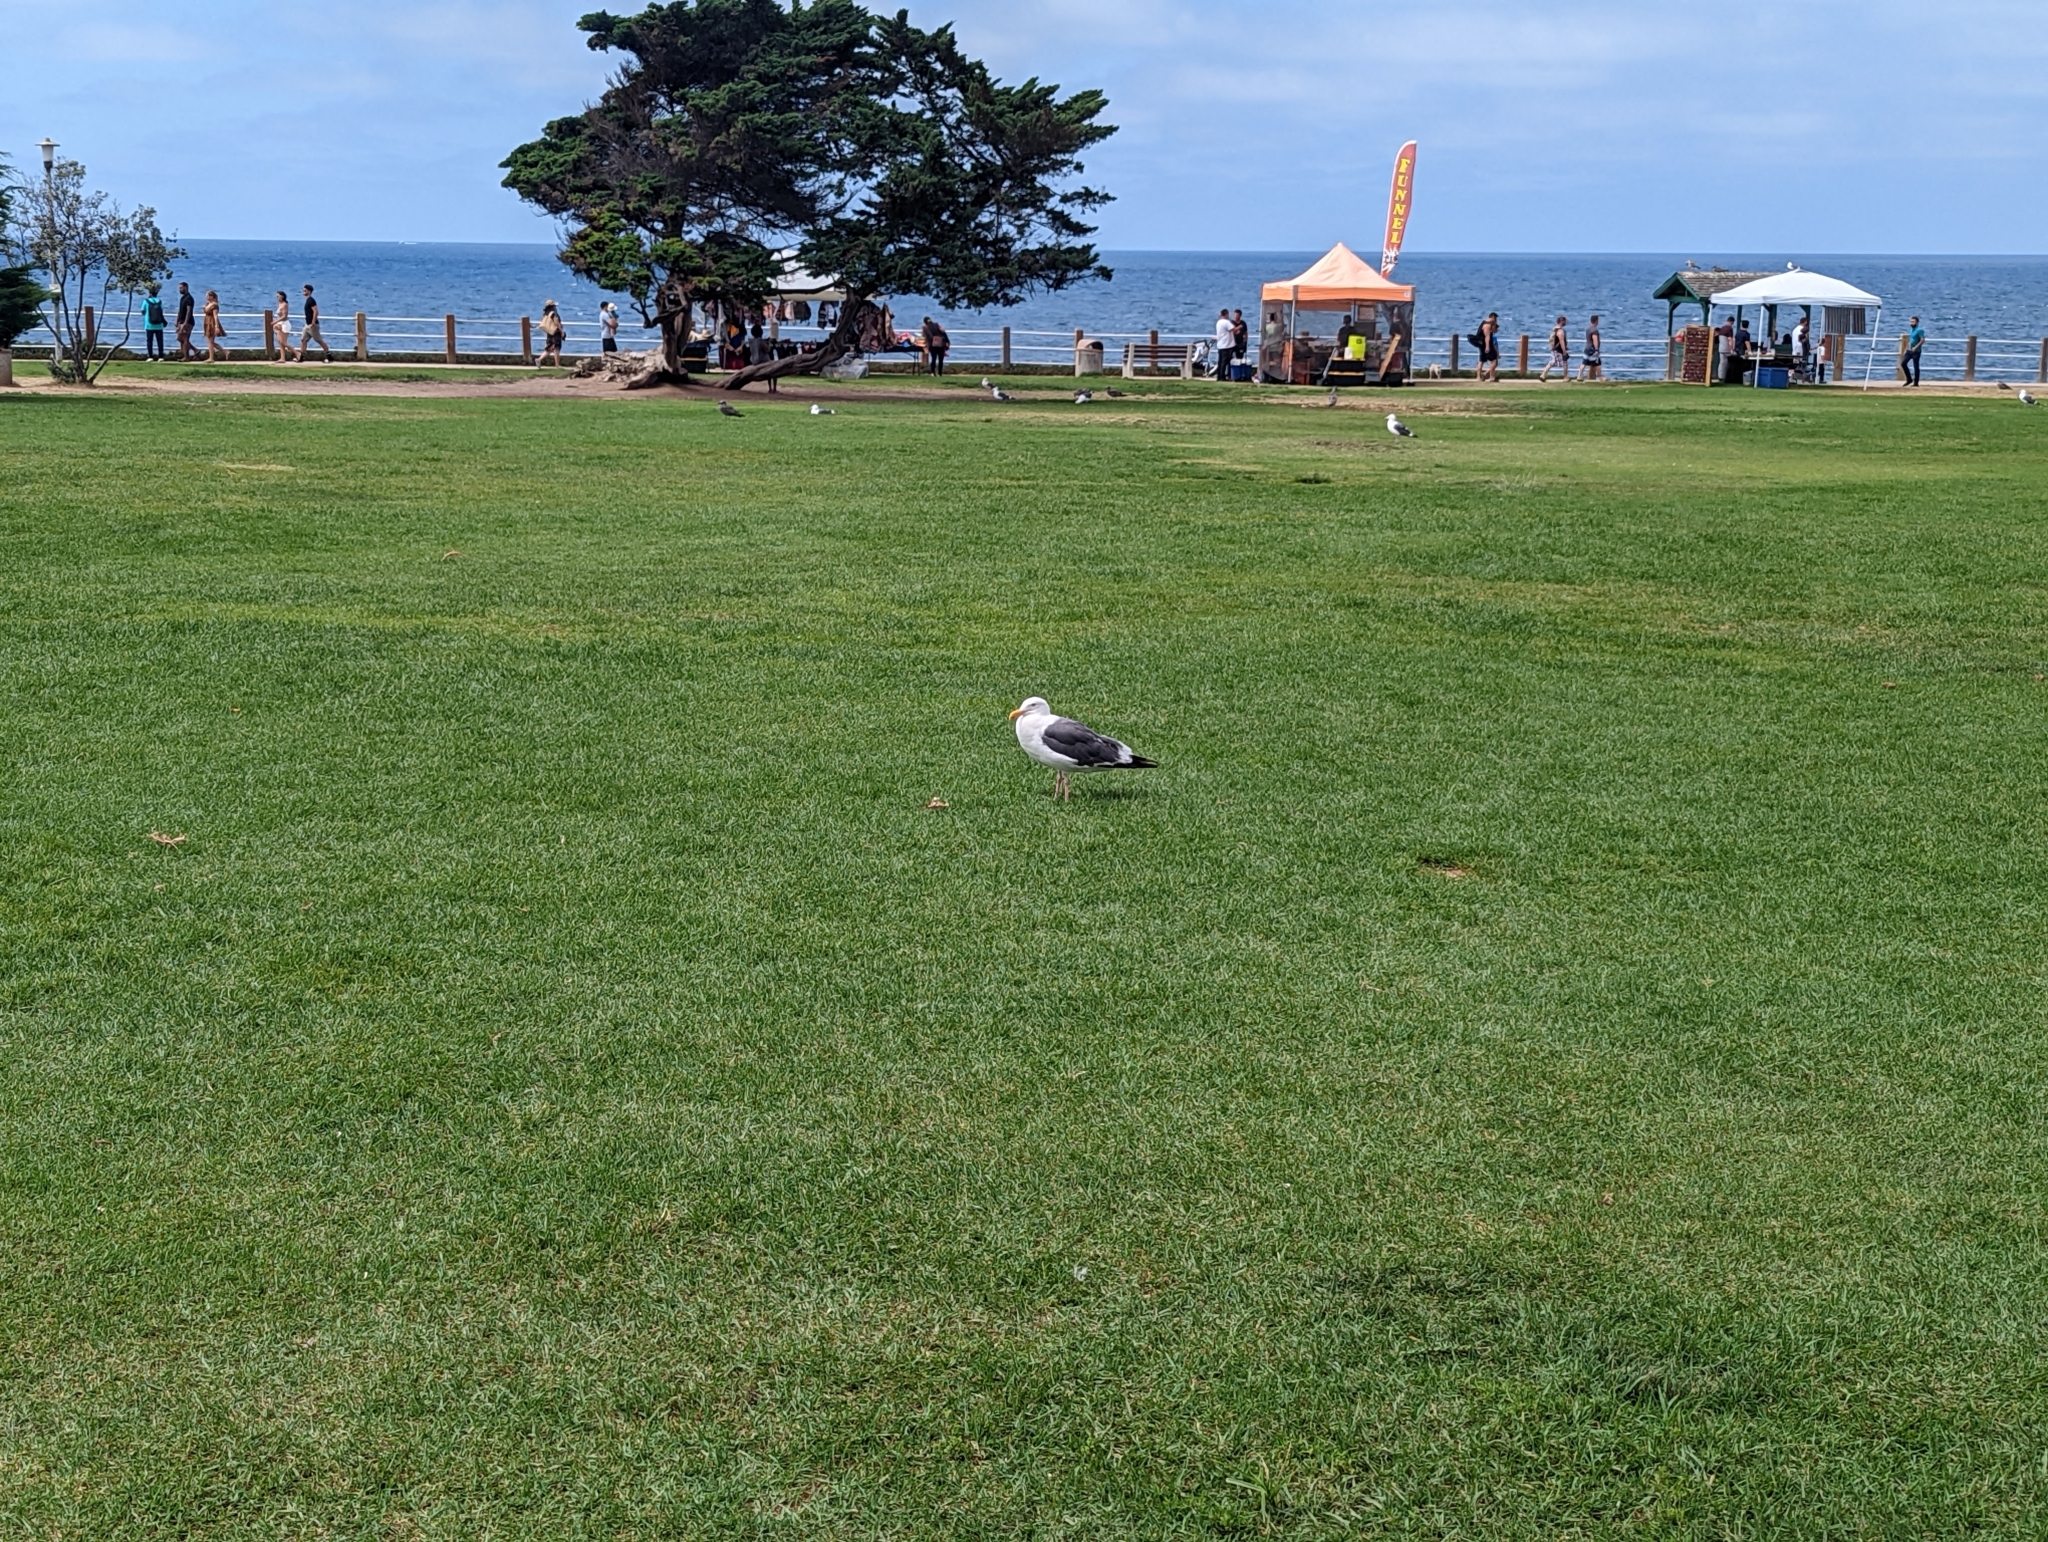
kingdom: Animalia
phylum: Chordata
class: Aves
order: Charadriiformes
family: Laridae
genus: Larus
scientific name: Larus occidentalis
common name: Western gull
